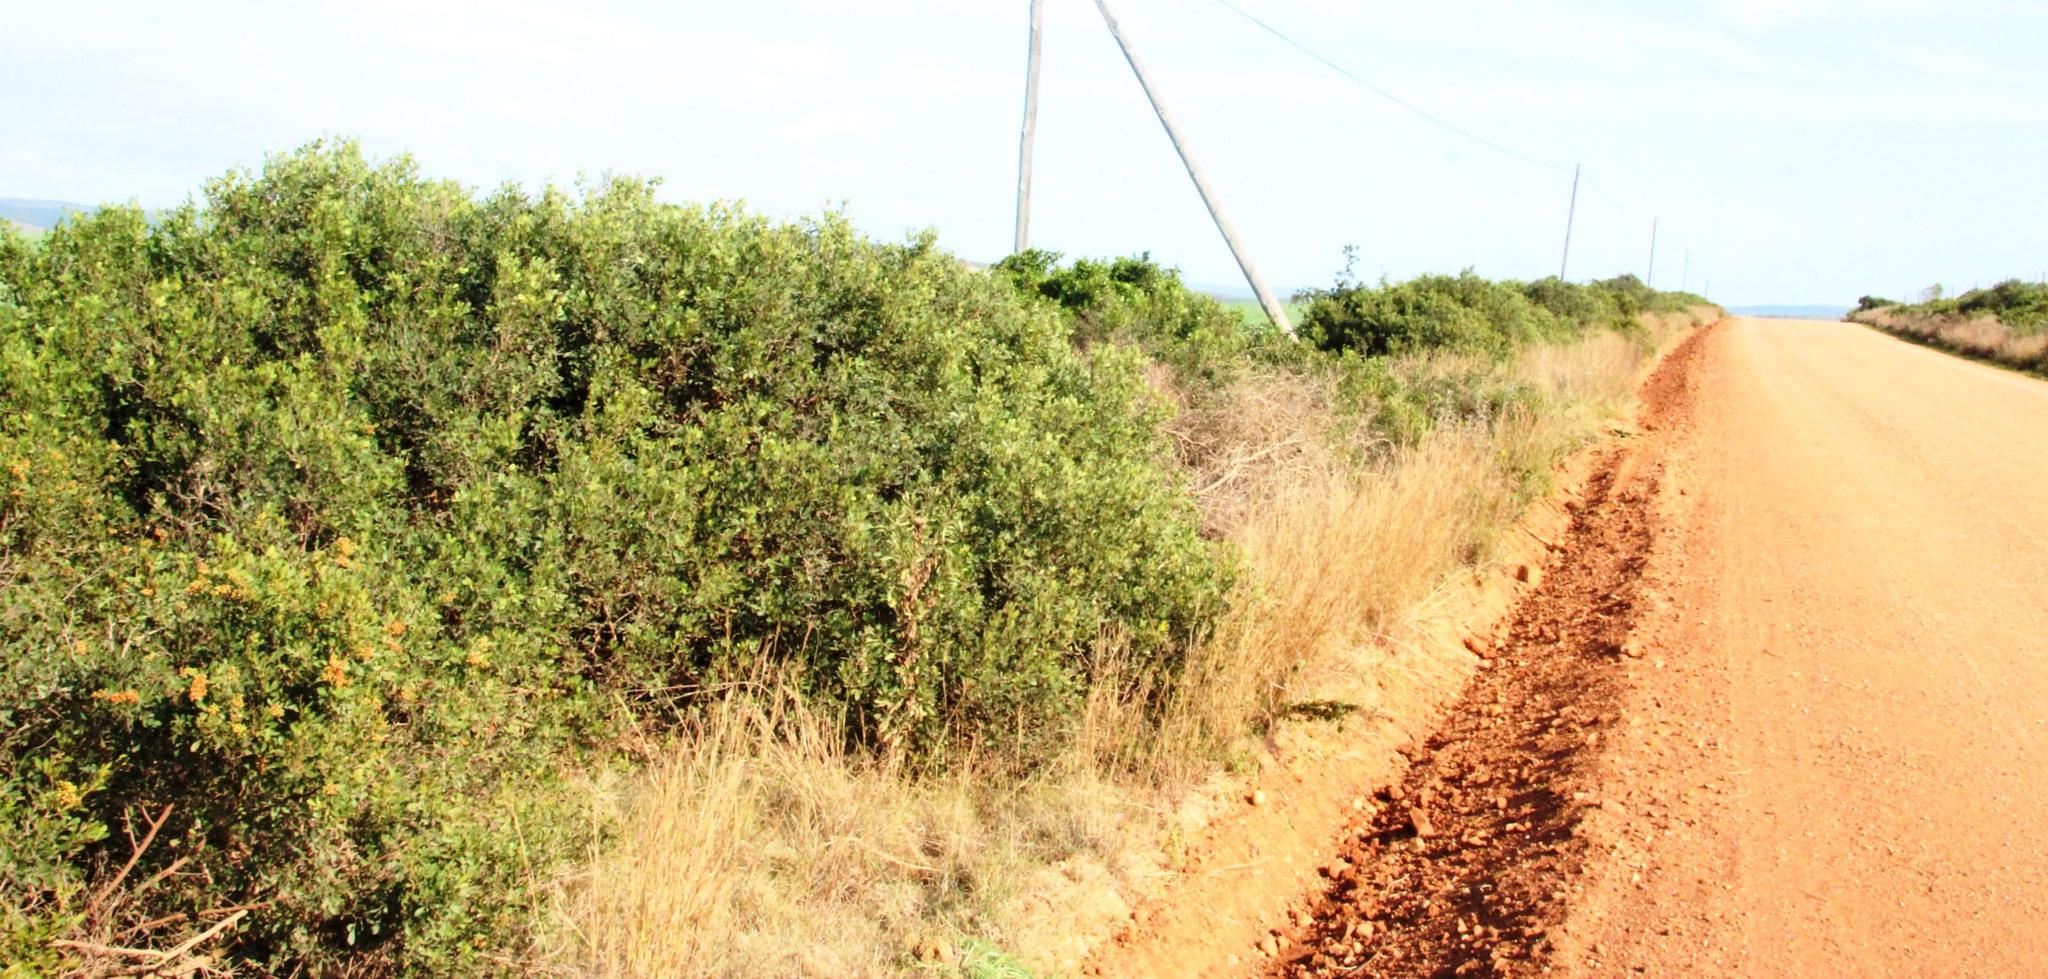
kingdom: Plantae
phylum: Tracheophyta
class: Magnoliopsida
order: Sapindales
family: Anacardiaceae
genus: Searsia
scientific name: Searsia pallens
